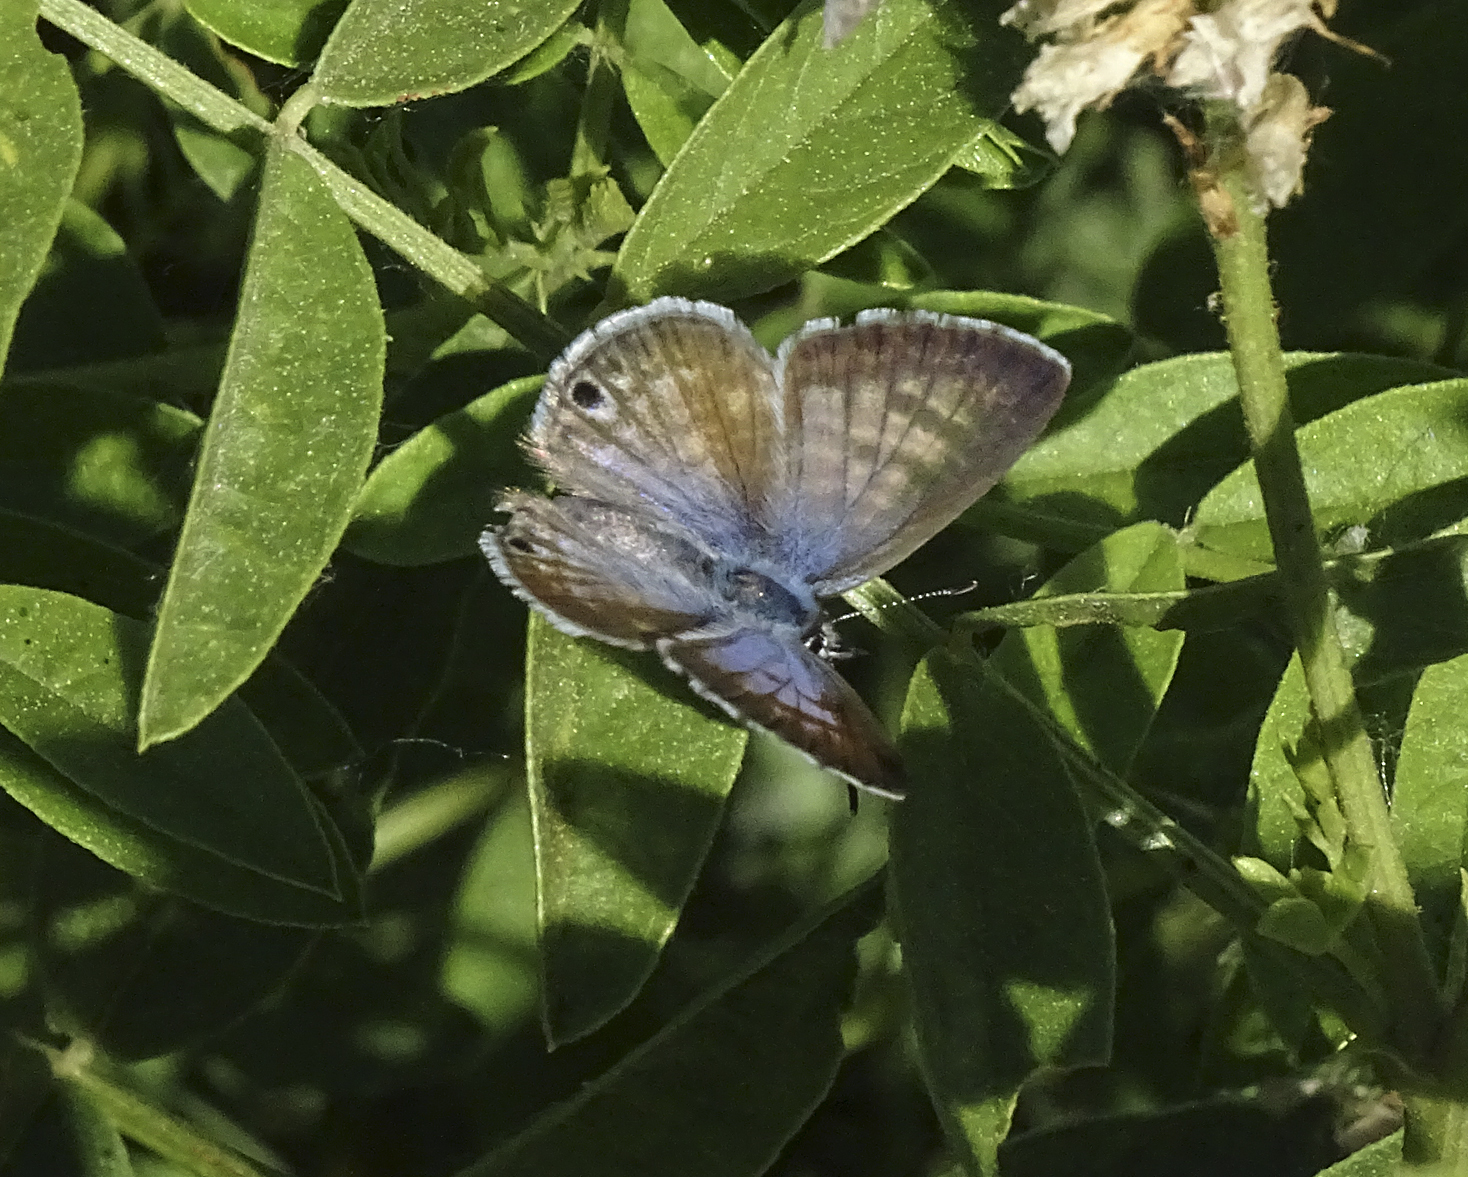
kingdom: Animalia
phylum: Arthropoda
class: Insecta
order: Lepidoptera
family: Lycaenidae
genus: Leptotes
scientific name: Leptotes marina
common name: Marine blue
